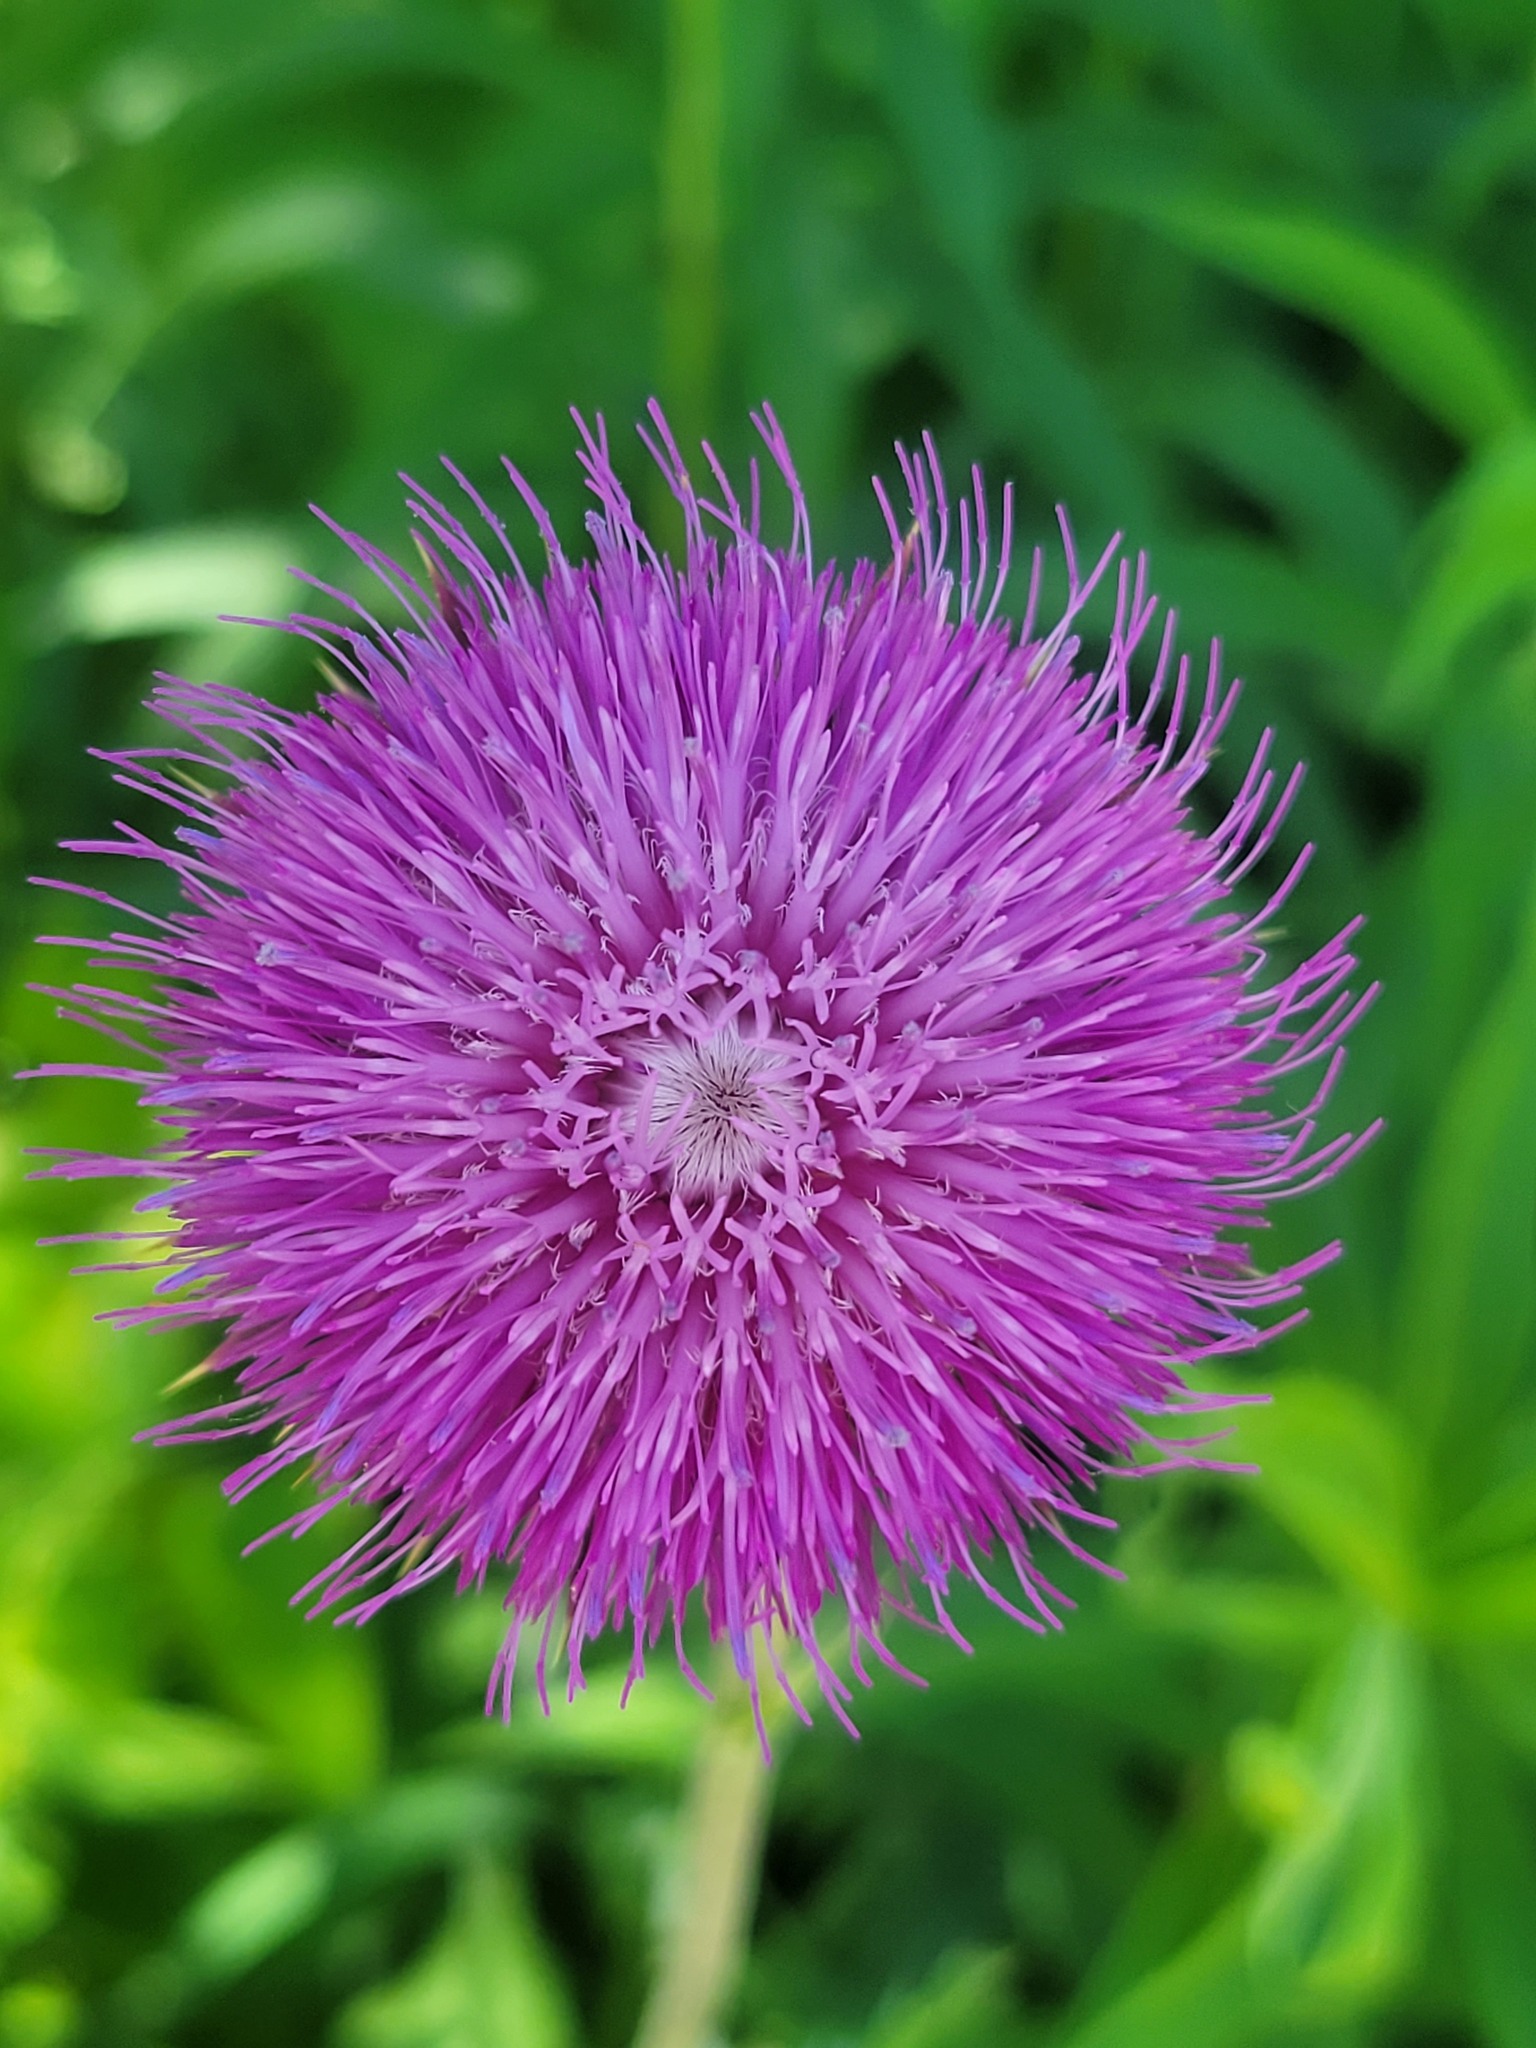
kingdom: Plantae
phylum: Tracheophyta
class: Magnoliopsida
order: Asterales
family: Asteraceae
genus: Carduus
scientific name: Carduus nutans
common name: Musk thistle
